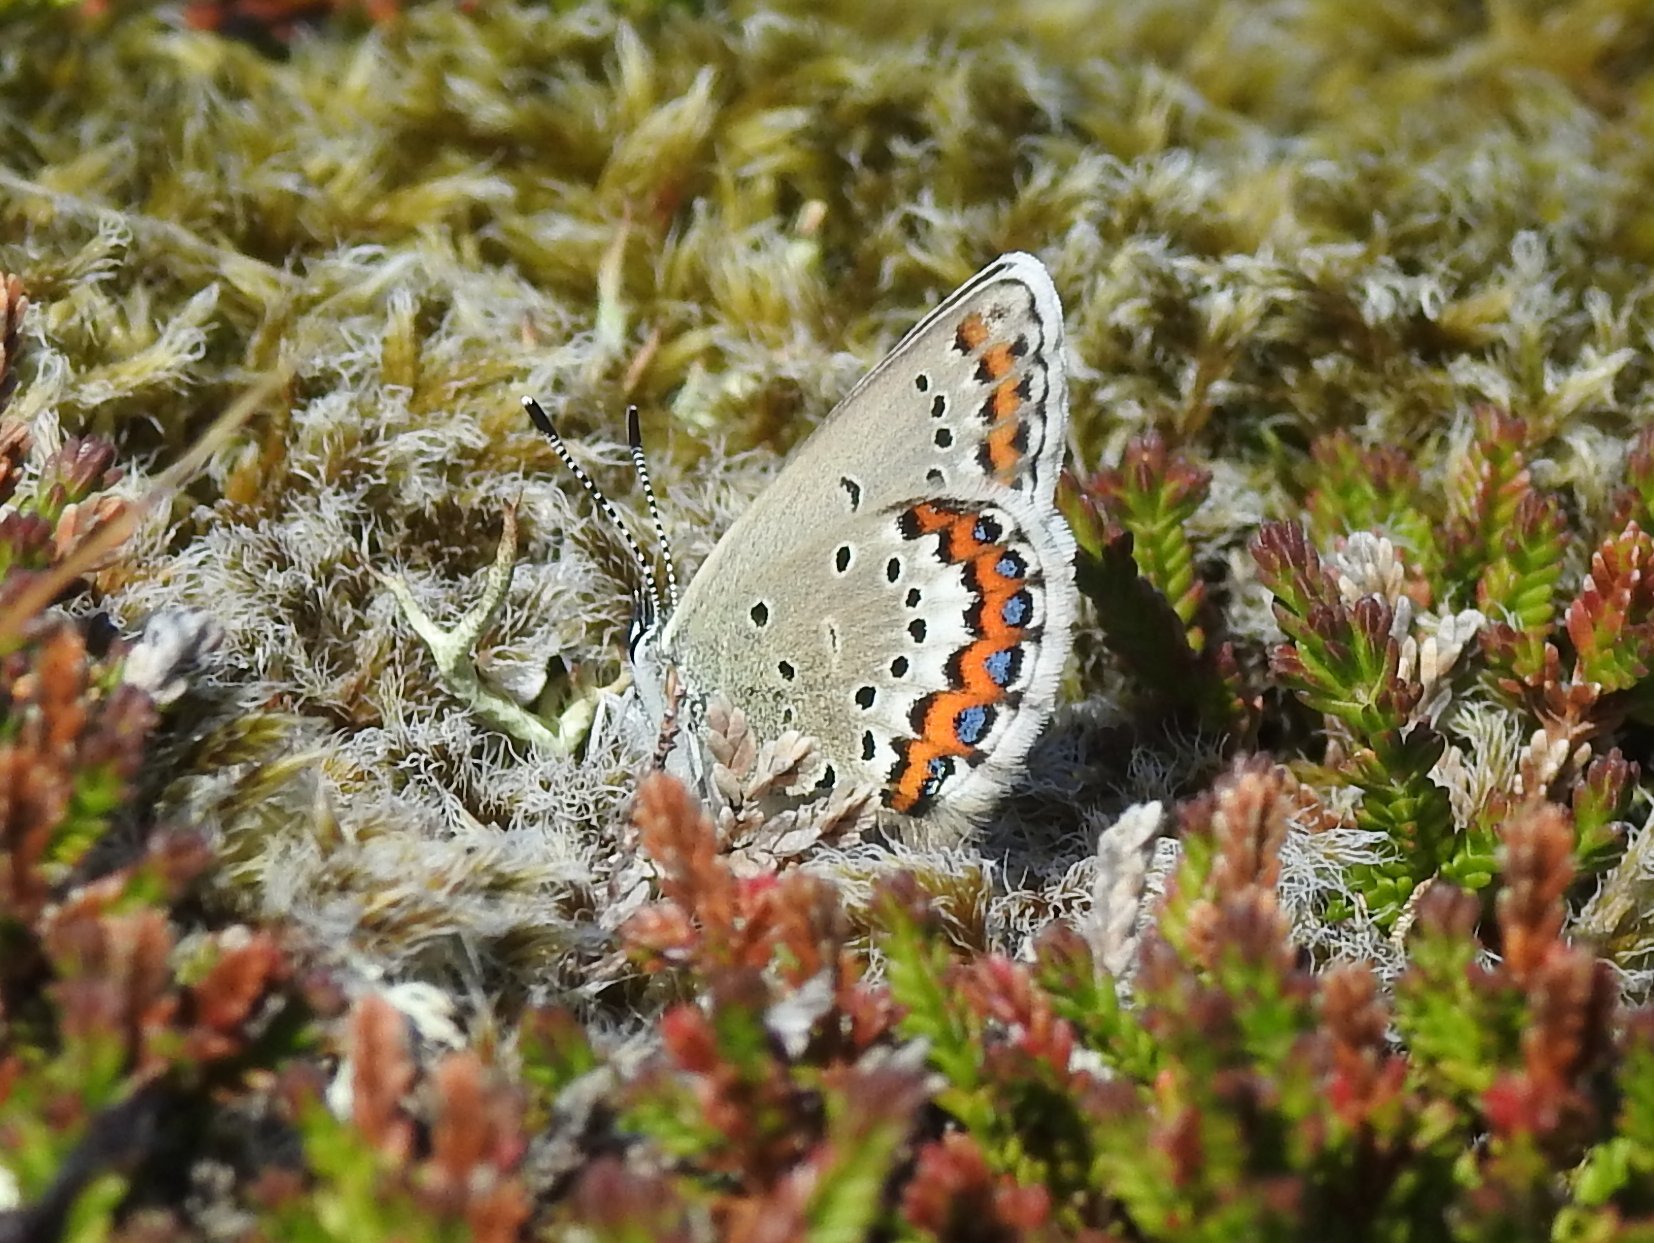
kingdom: Animalia
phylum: Arthropoda
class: Insecta
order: Lepidoptera
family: Lycaenidae
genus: Lycaeides
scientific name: Lycaeides idas
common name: Northern blue
